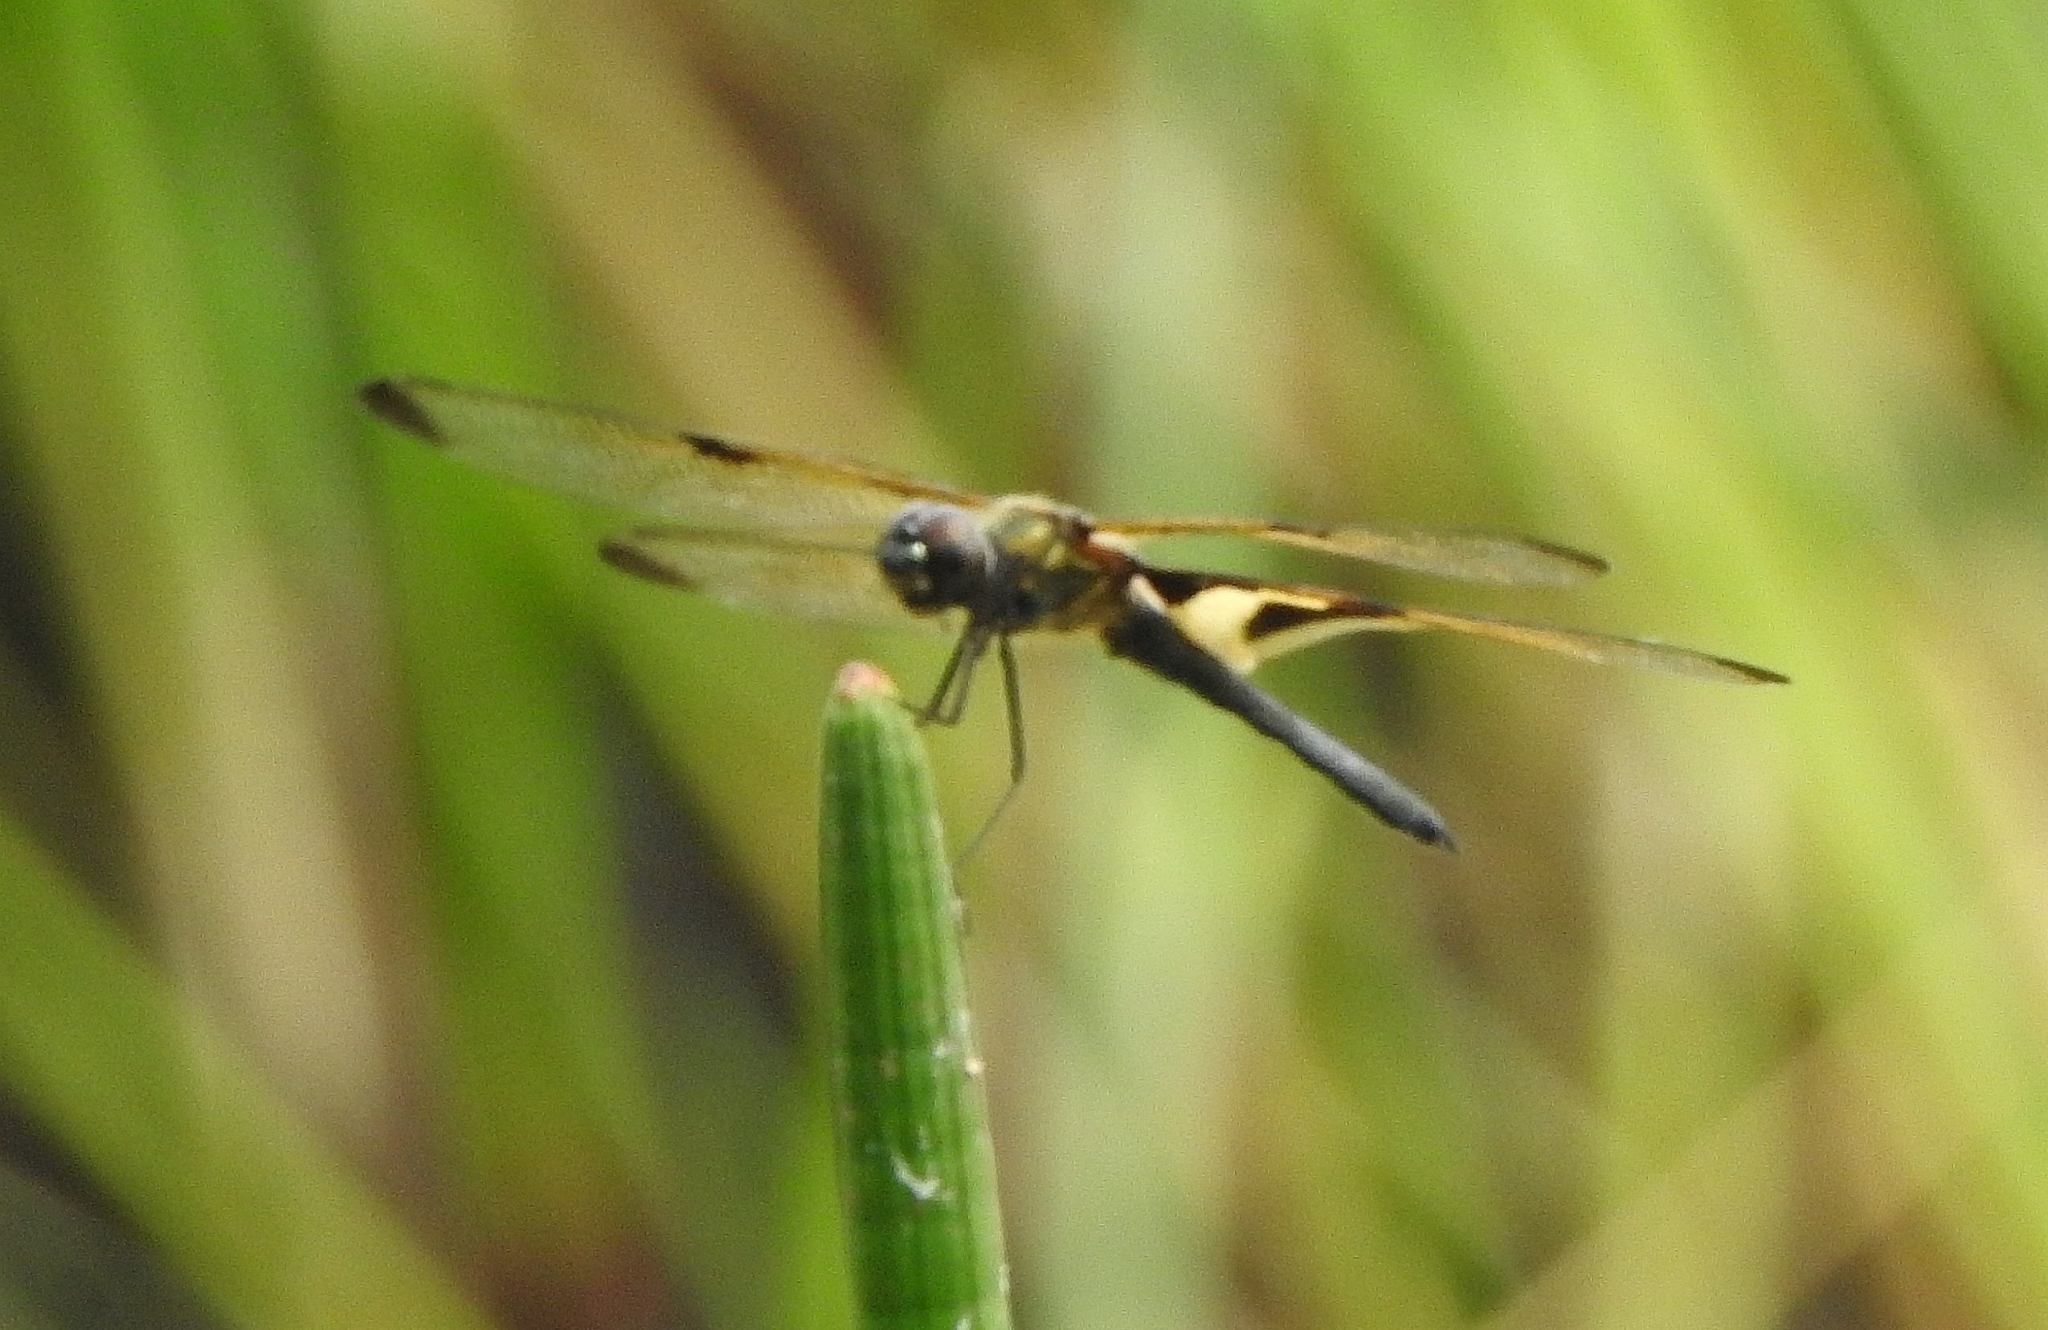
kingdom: Animalia
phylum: Arthropoda
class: Insecta
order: Odonata
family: Libellulidae
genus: Rhyothemis
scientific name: Rhyothemis variegata
